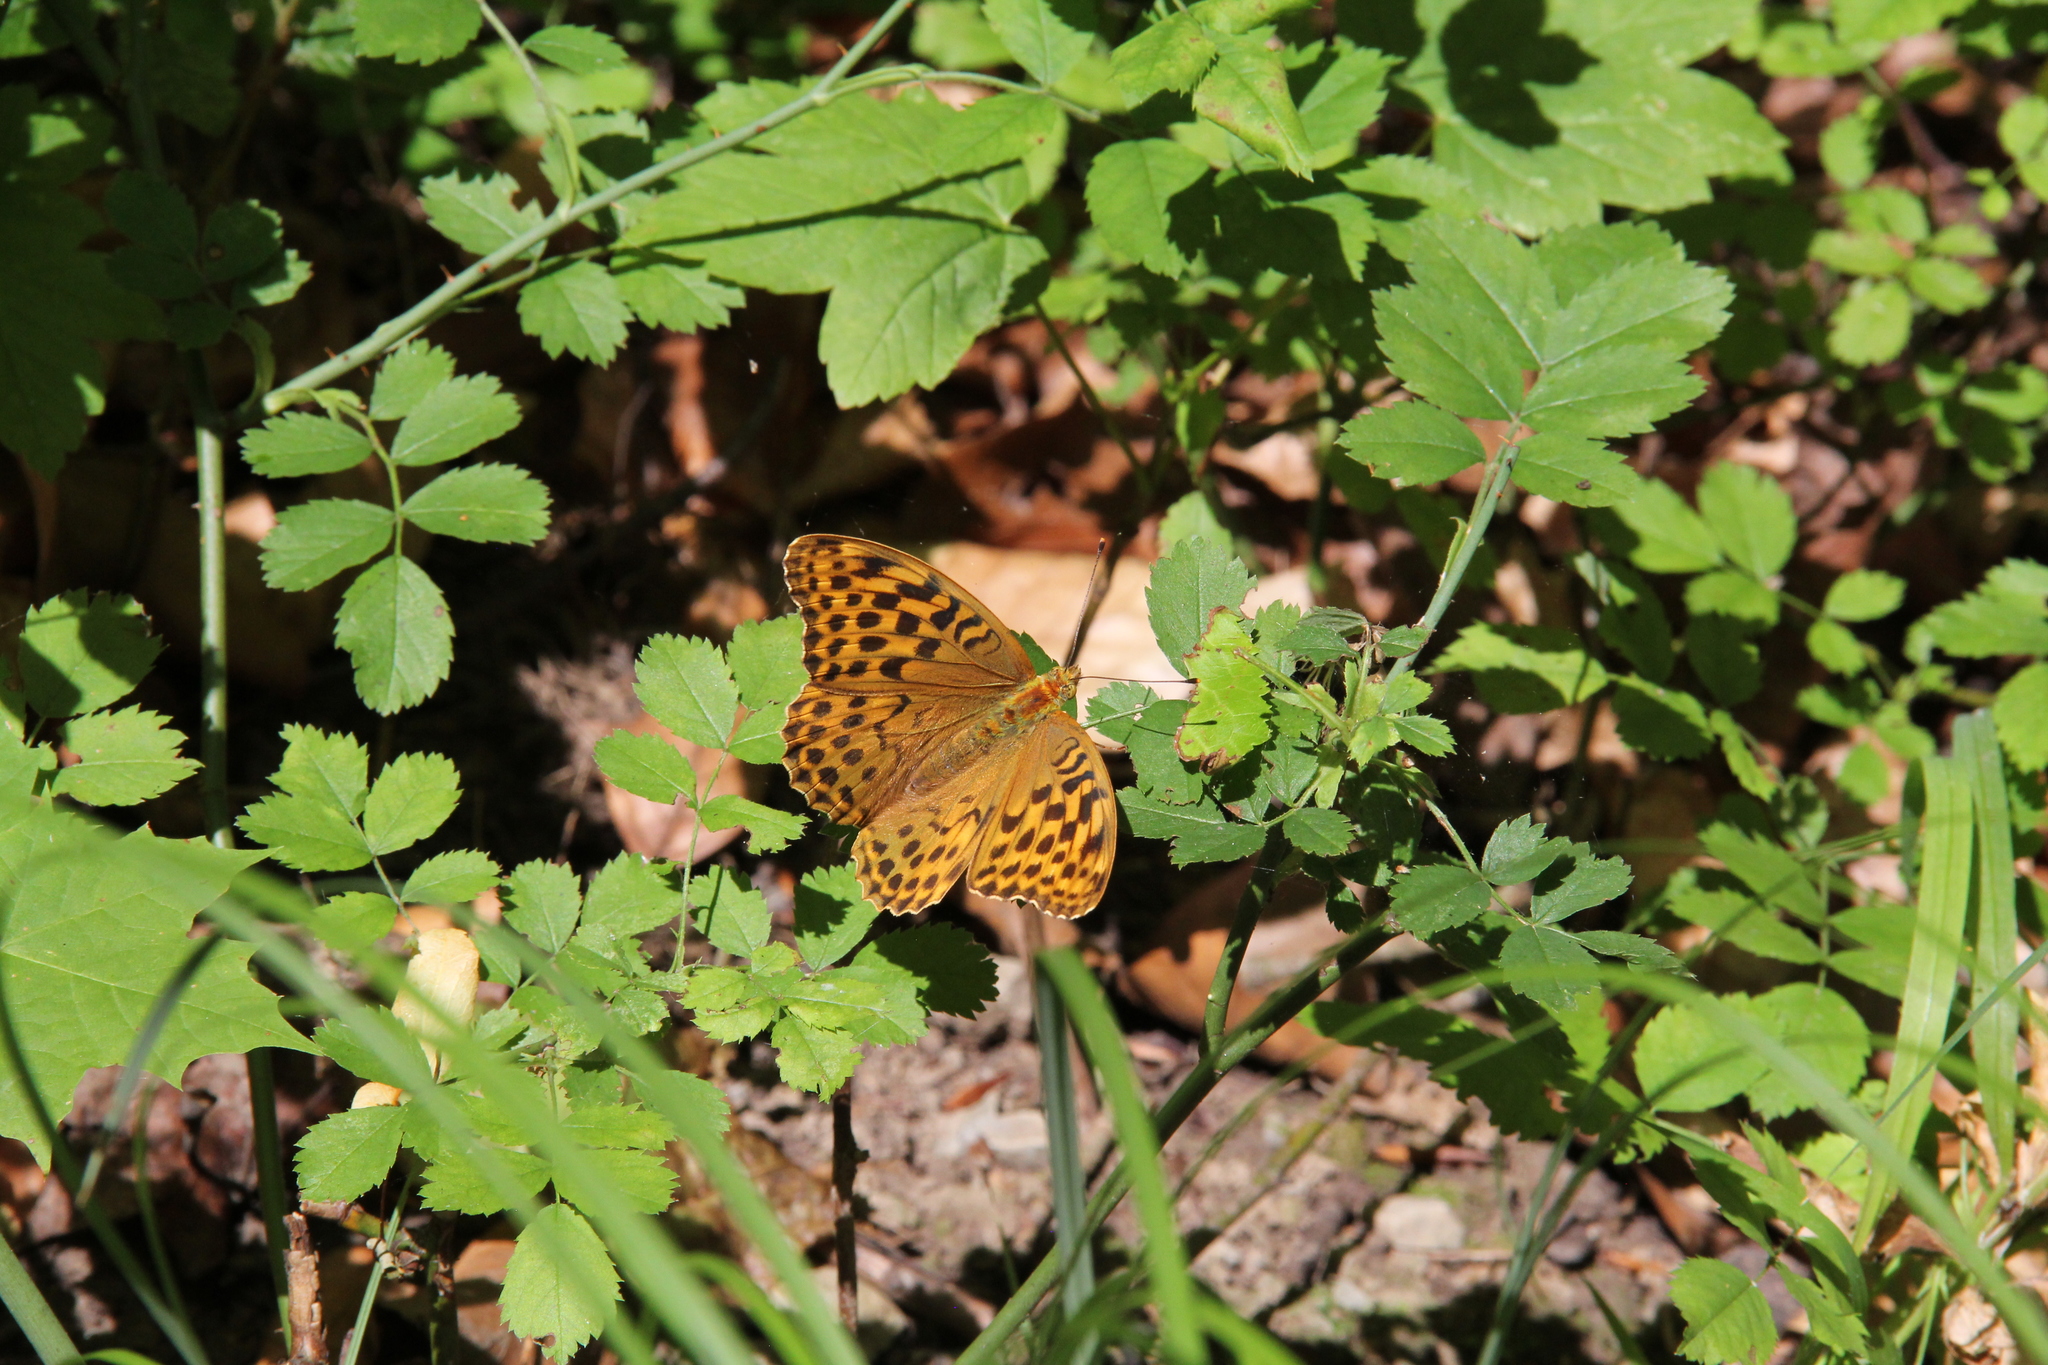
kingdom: Animalia
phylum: Arthropoda
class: Insecta
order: Lepidoptera
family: Nymphalidae
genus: Argynnis
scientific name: Argynnis paphia
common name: Silver-washed fritillary
